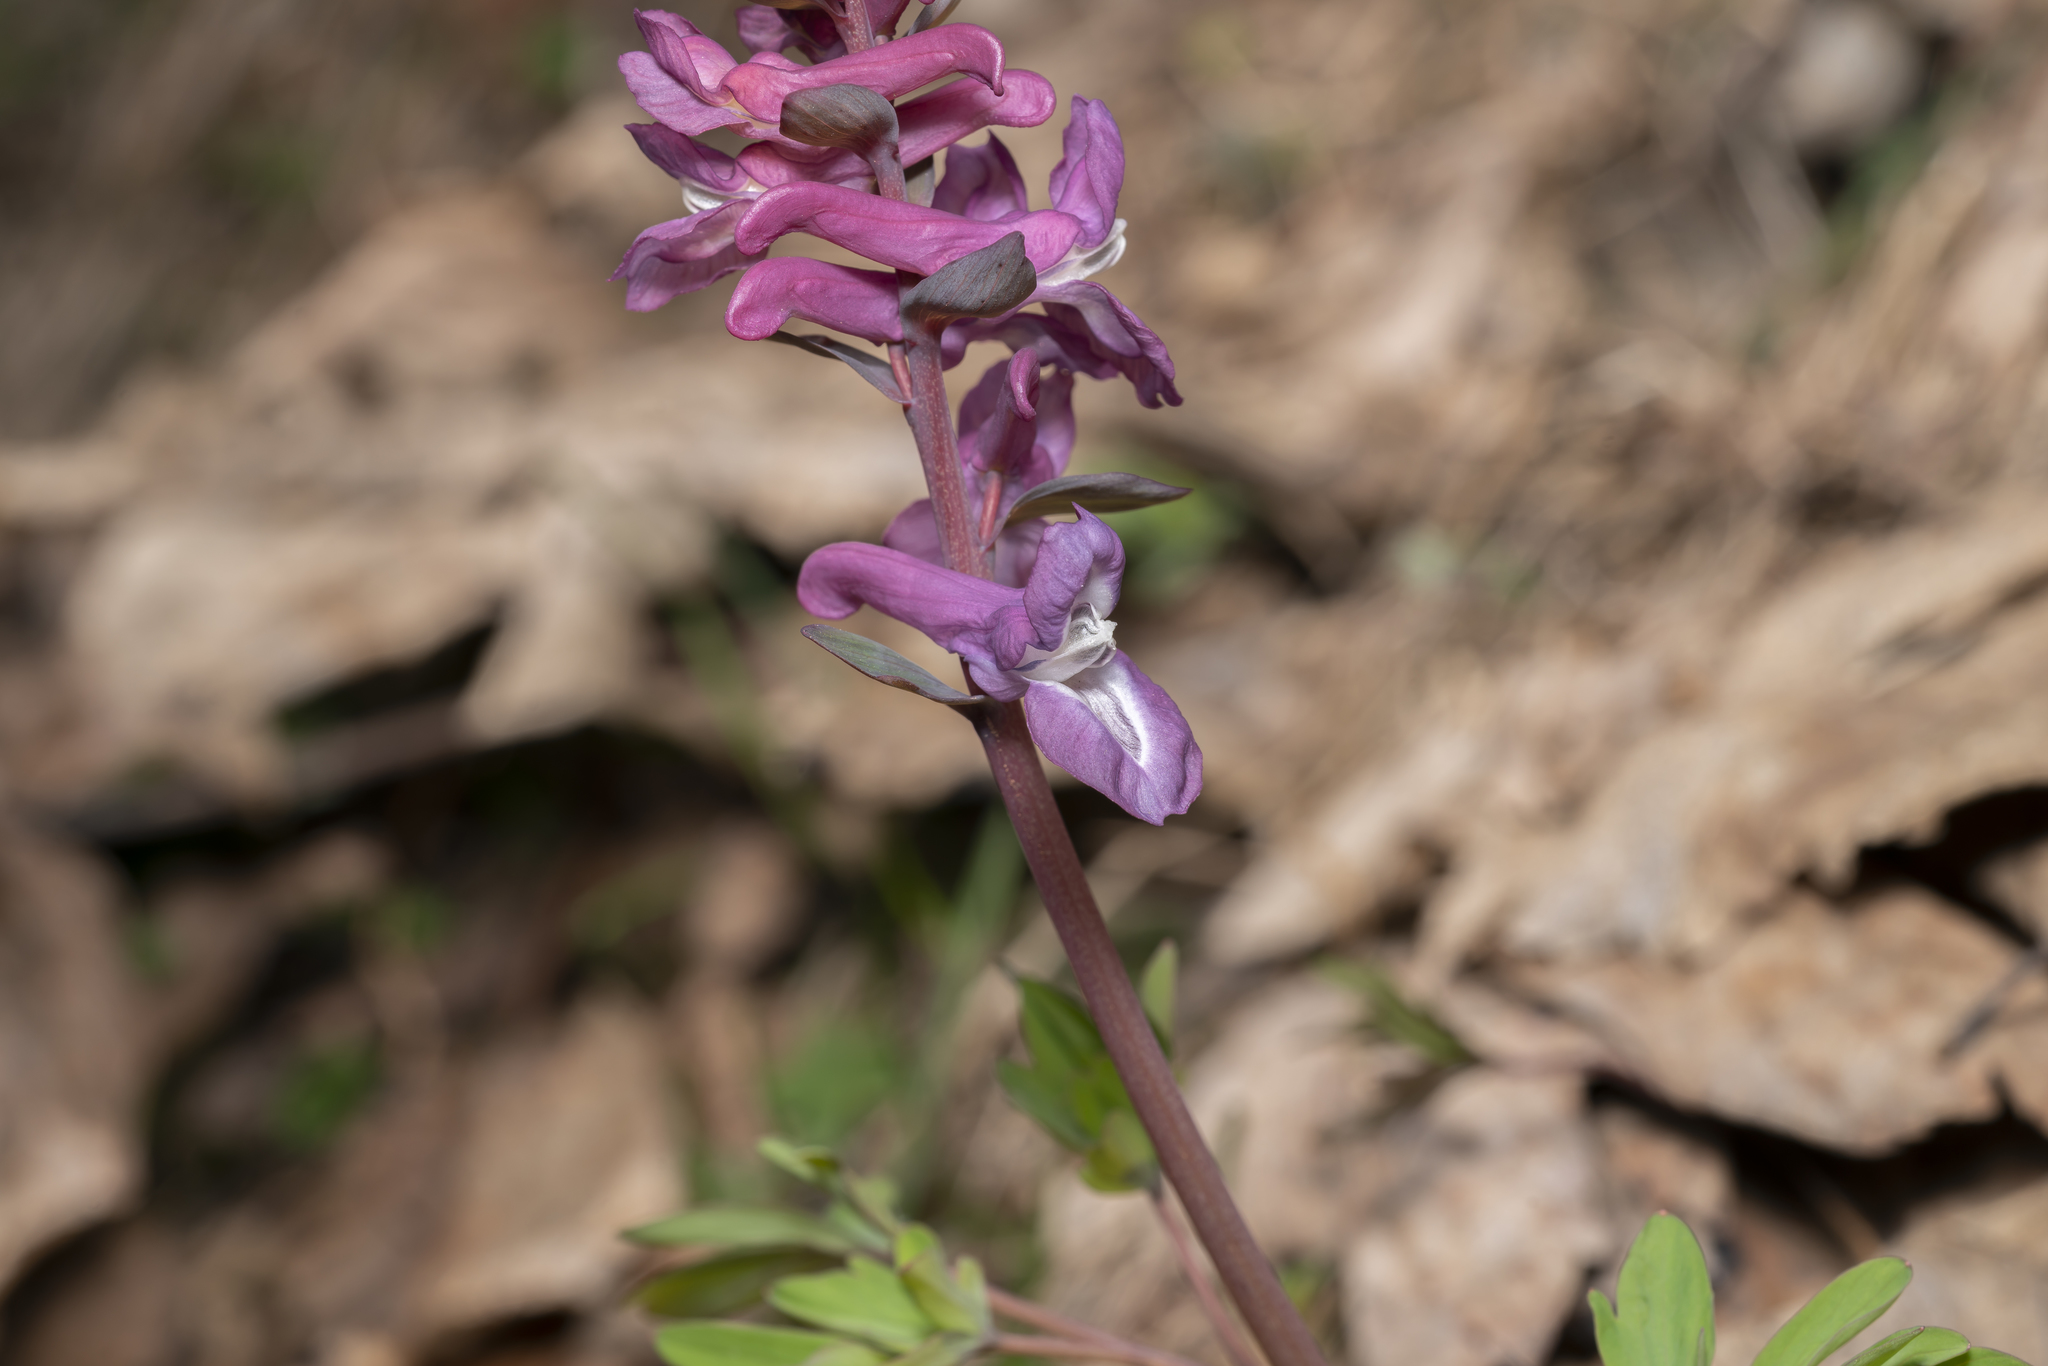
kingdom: Plantae
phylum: Tracheophyta
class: Magnoliopsida
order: Ranunculales
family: Papaveraceae
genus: Corydalis
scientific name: Corydalis cava
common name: Hollowroot
